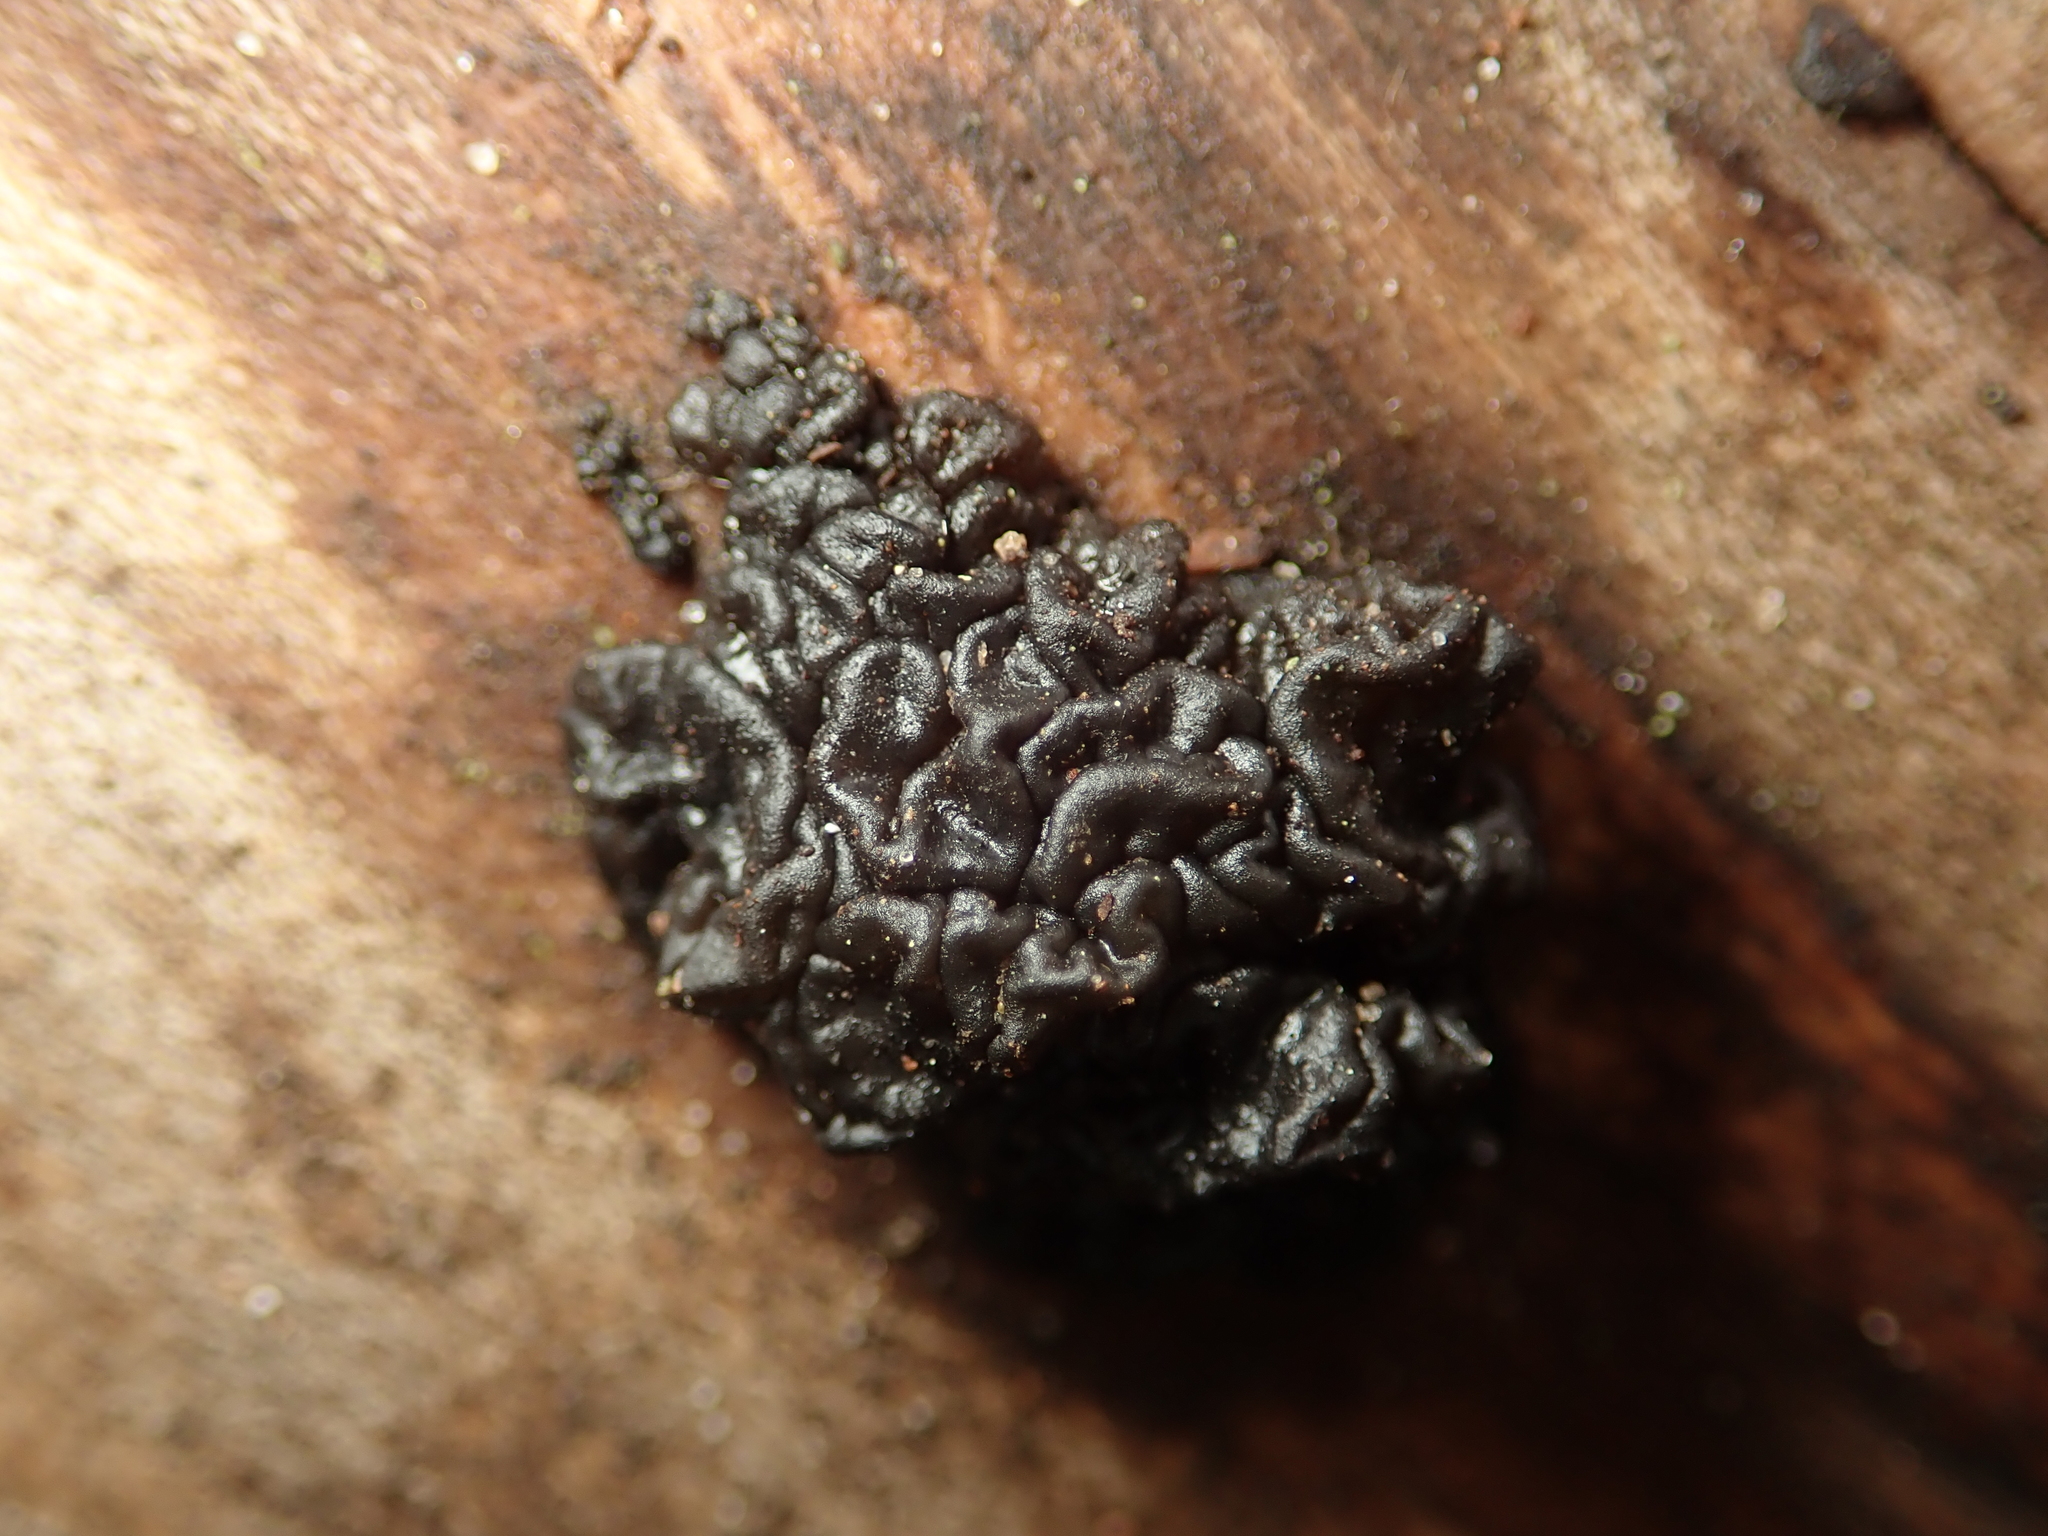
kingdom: Fungi
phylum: Basidiomycota
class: Agaricomycetes
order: Auriculariales
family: Auriculariaceae
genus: Exidia
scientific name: Exidia glandulosa
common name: Witches' butter
